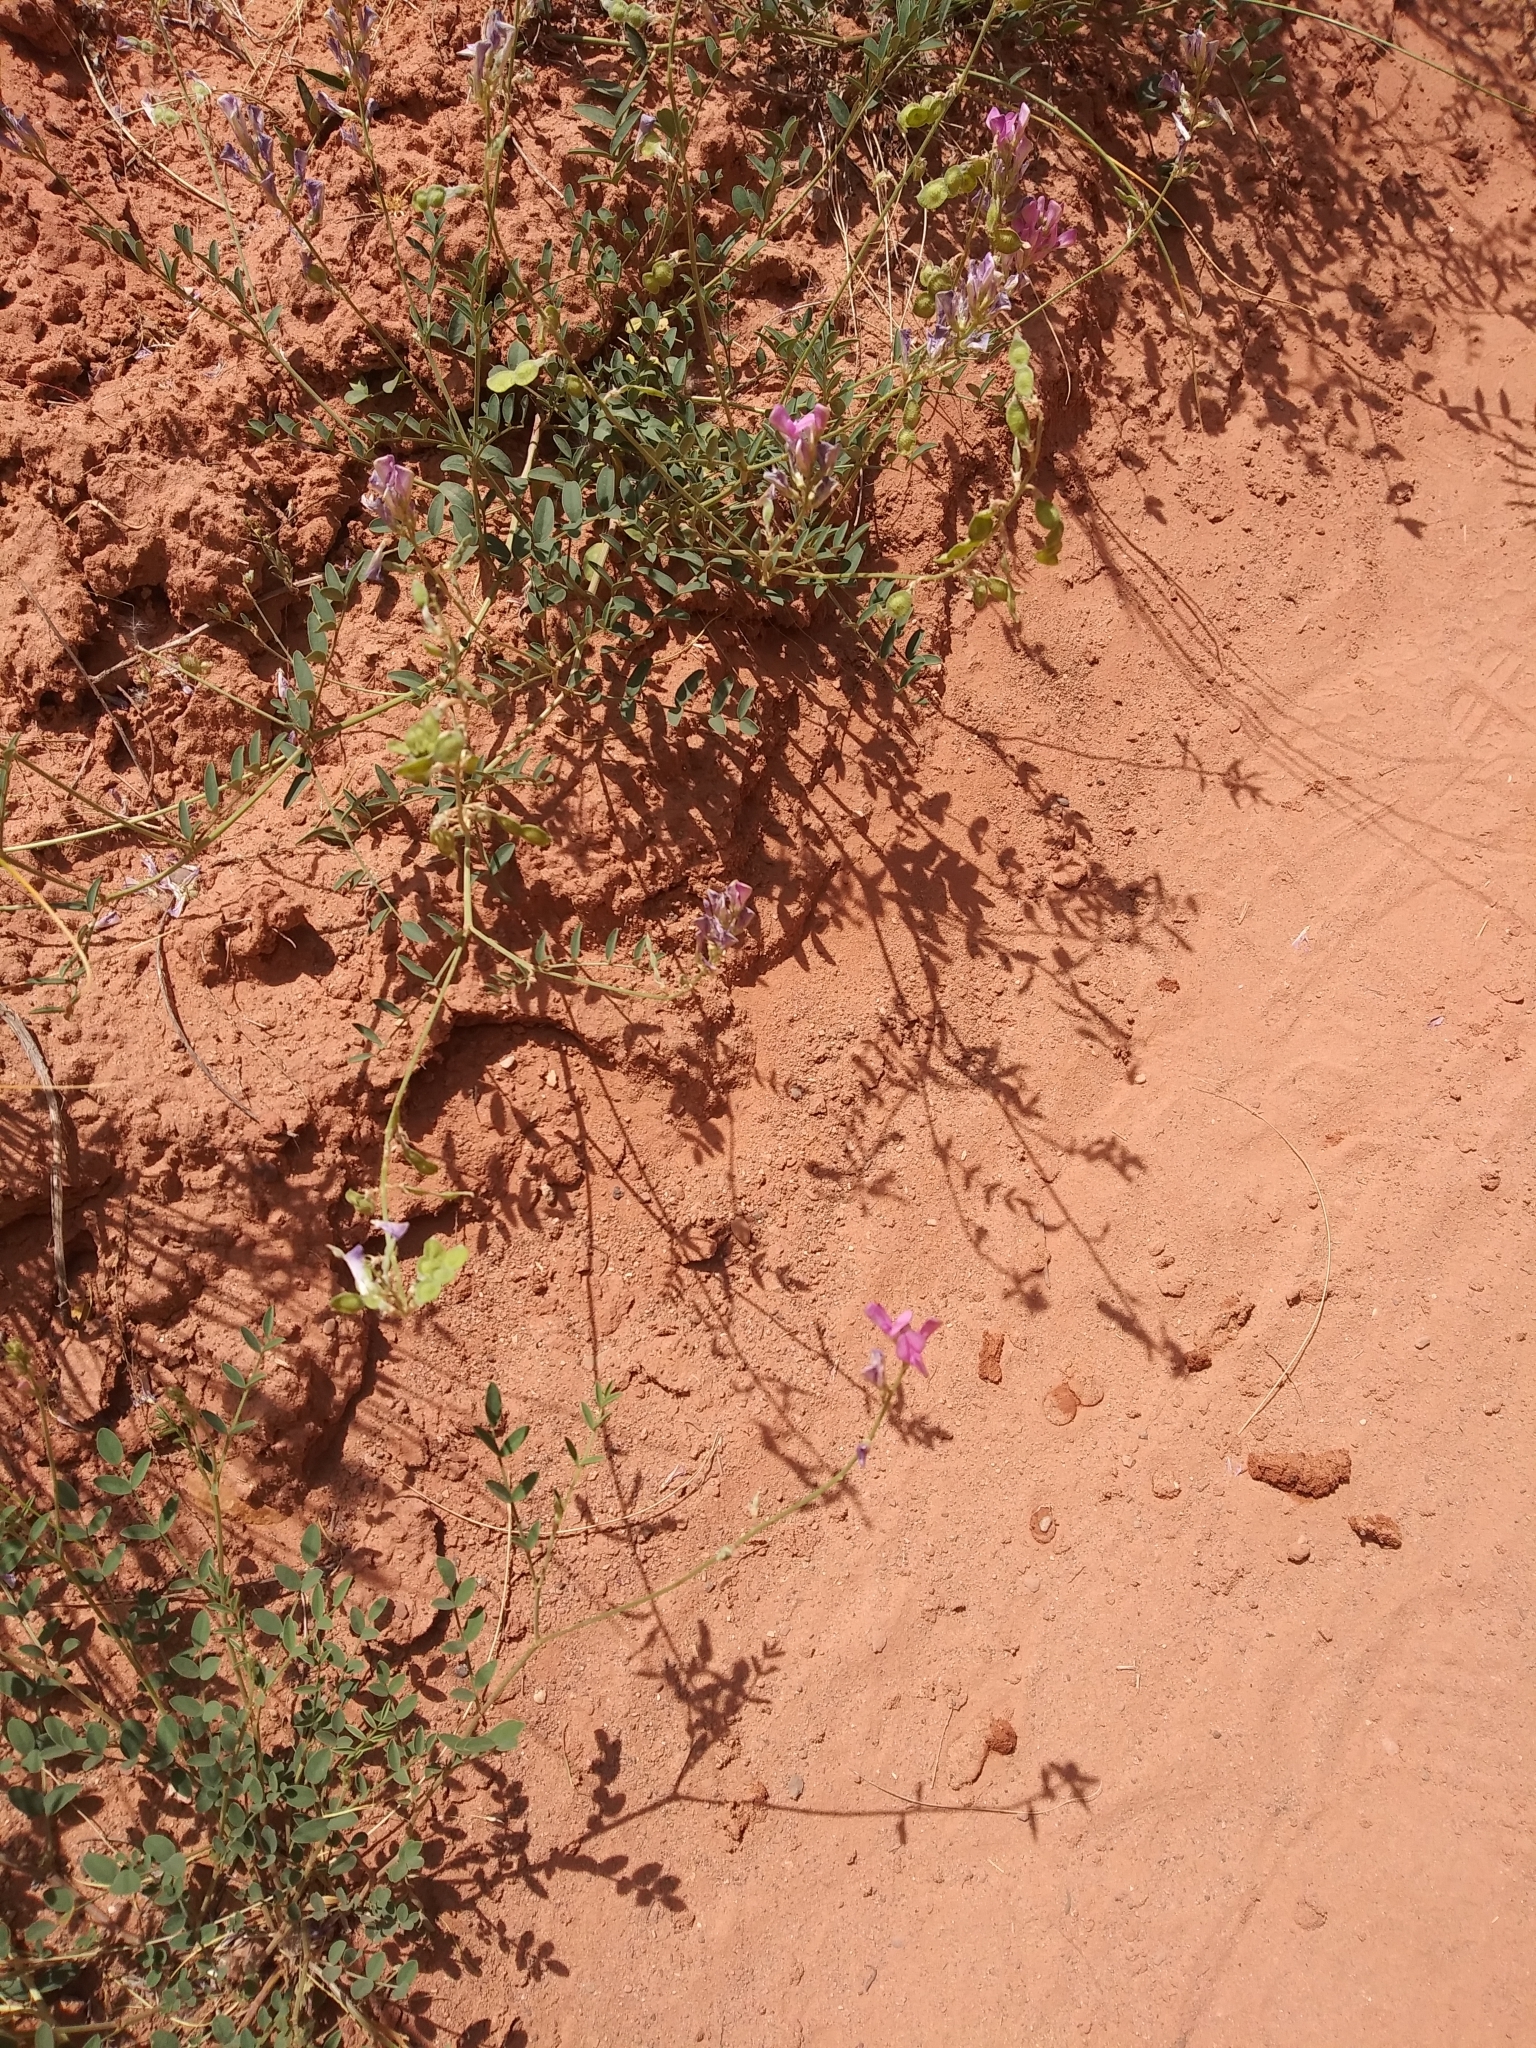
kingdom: Plantae
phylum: Tracheophyta
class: Magnoliopsida
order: Fabales
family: Fabaceae
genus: Hedysarum
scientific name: Hedysarum boreale
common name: Northern sweet-vetch
